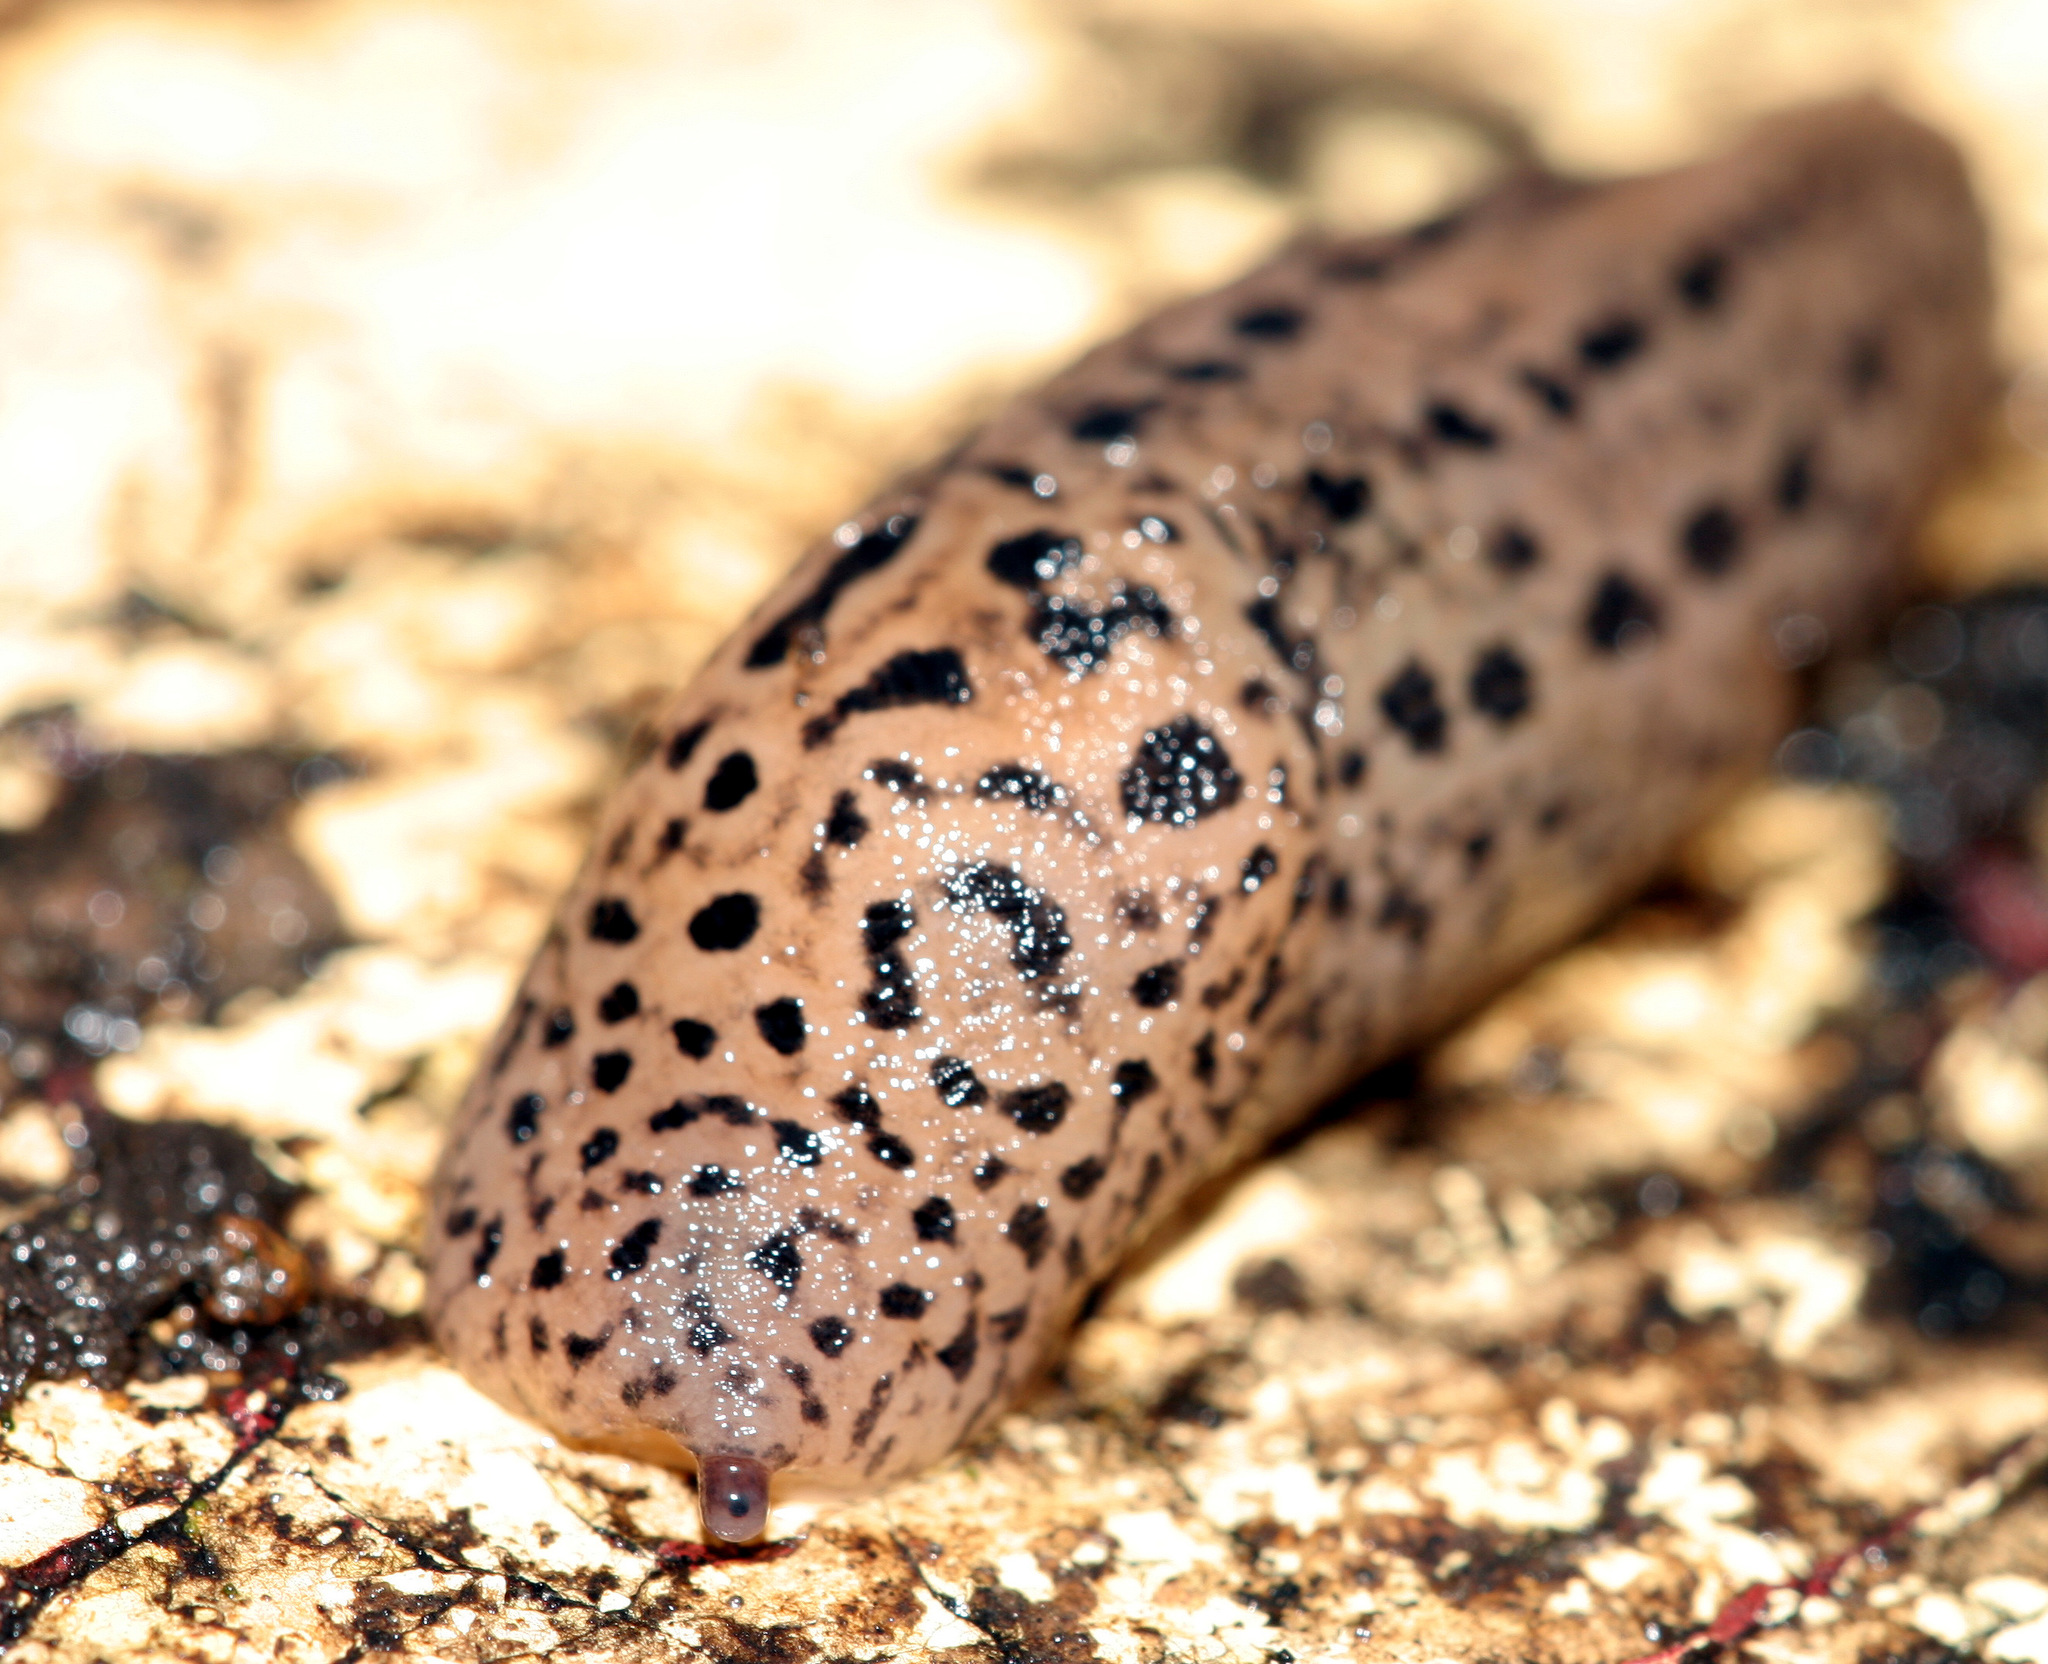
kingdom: Animalia
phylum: Mollusca
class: Gastropoda
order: Stylommatophora
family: Limacidae
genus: Limax
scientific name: Limax maximus
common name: Great grey slug
